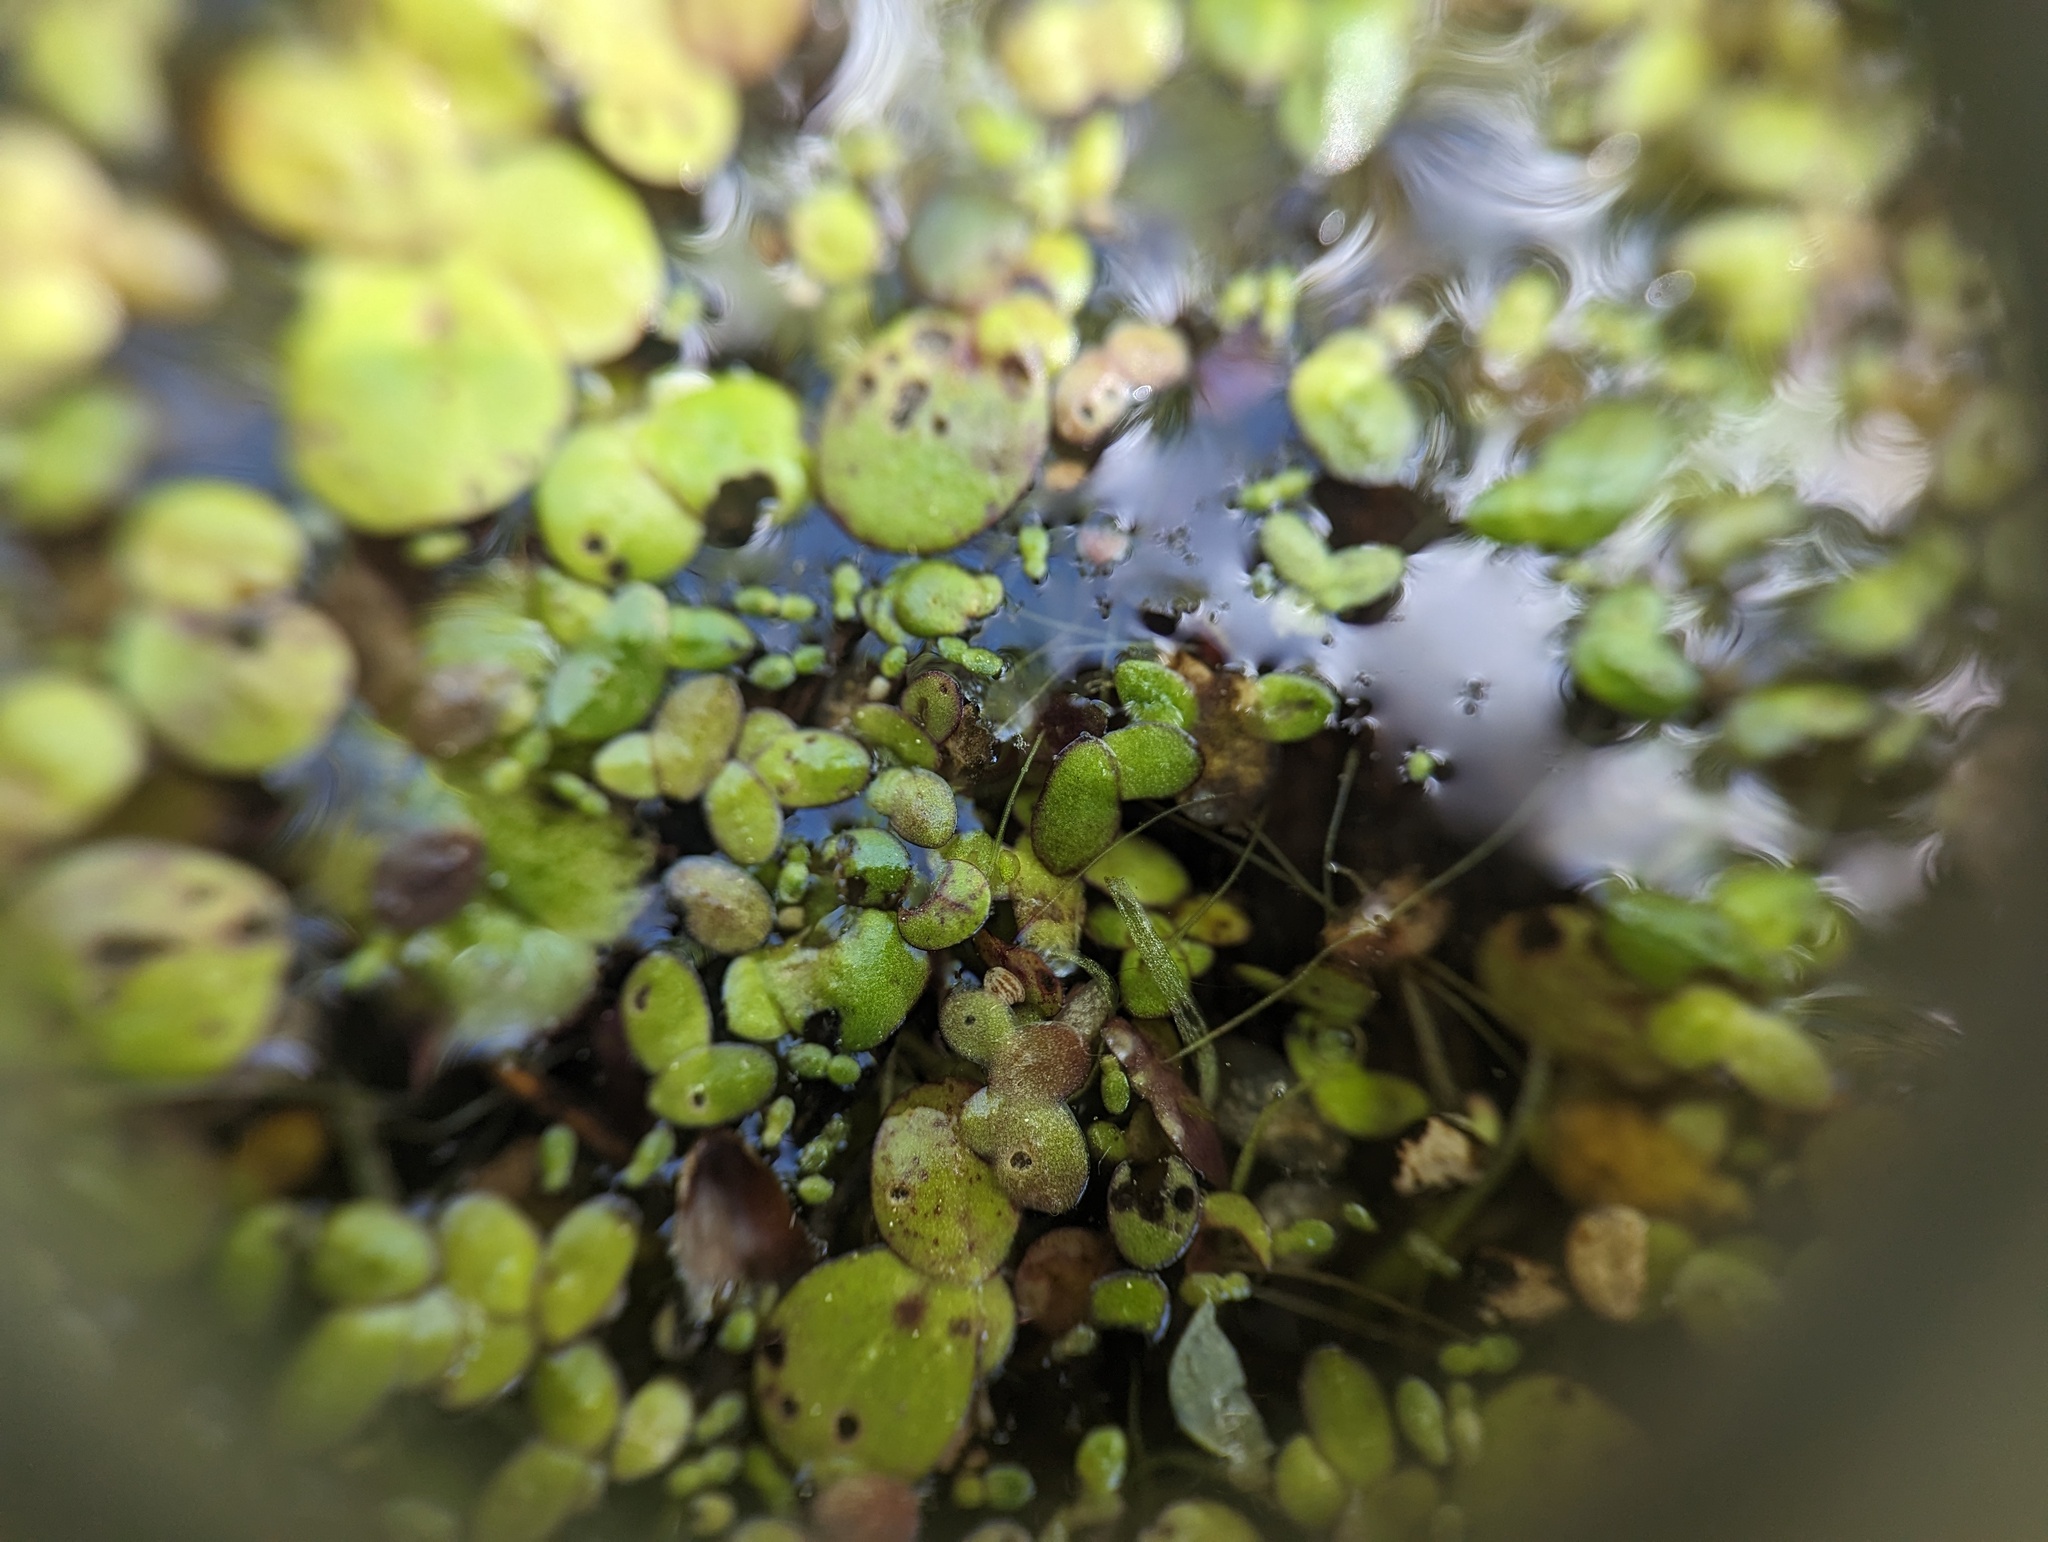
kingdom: Plantae
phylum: Tracheophyta
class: Liliopsida
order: Alismatales
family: Araceae
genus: Wolffia
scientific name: Wolffia brasiliensis
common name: Brazilian watermeal
